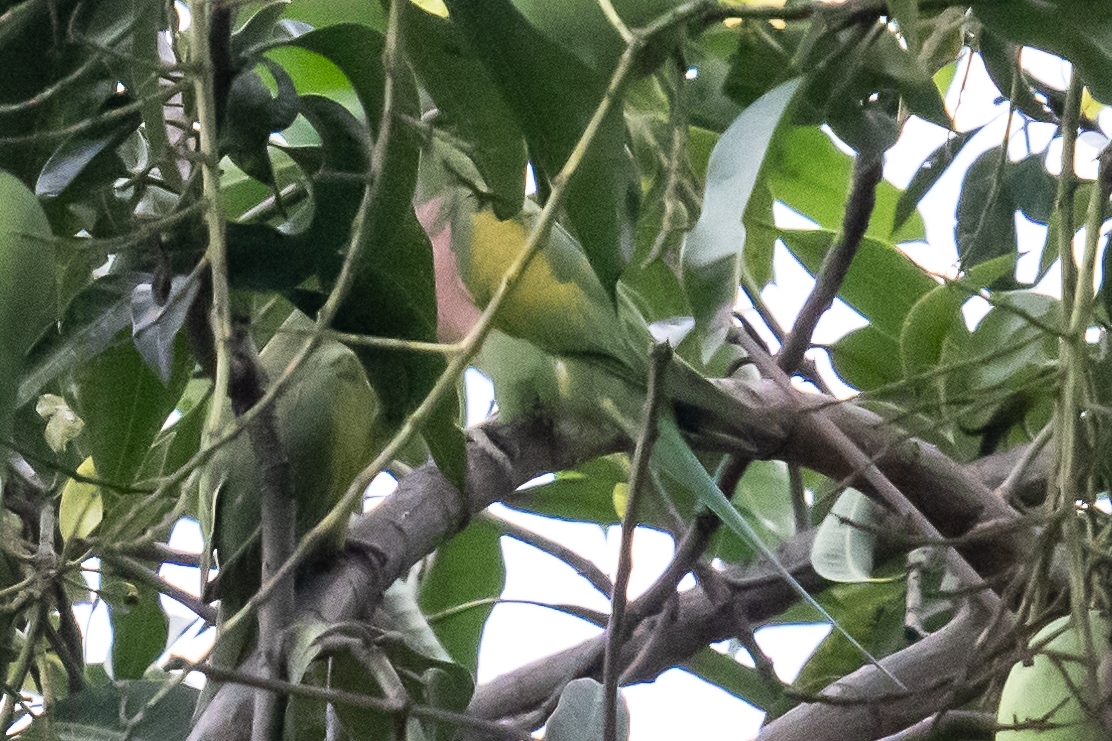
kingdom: Animalia
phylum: Chordata
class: Aves
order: Psittaciformes
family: Psittacidae
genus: Psittacula
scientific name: Psittacula alexandri
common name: Red-breasted parakeet
